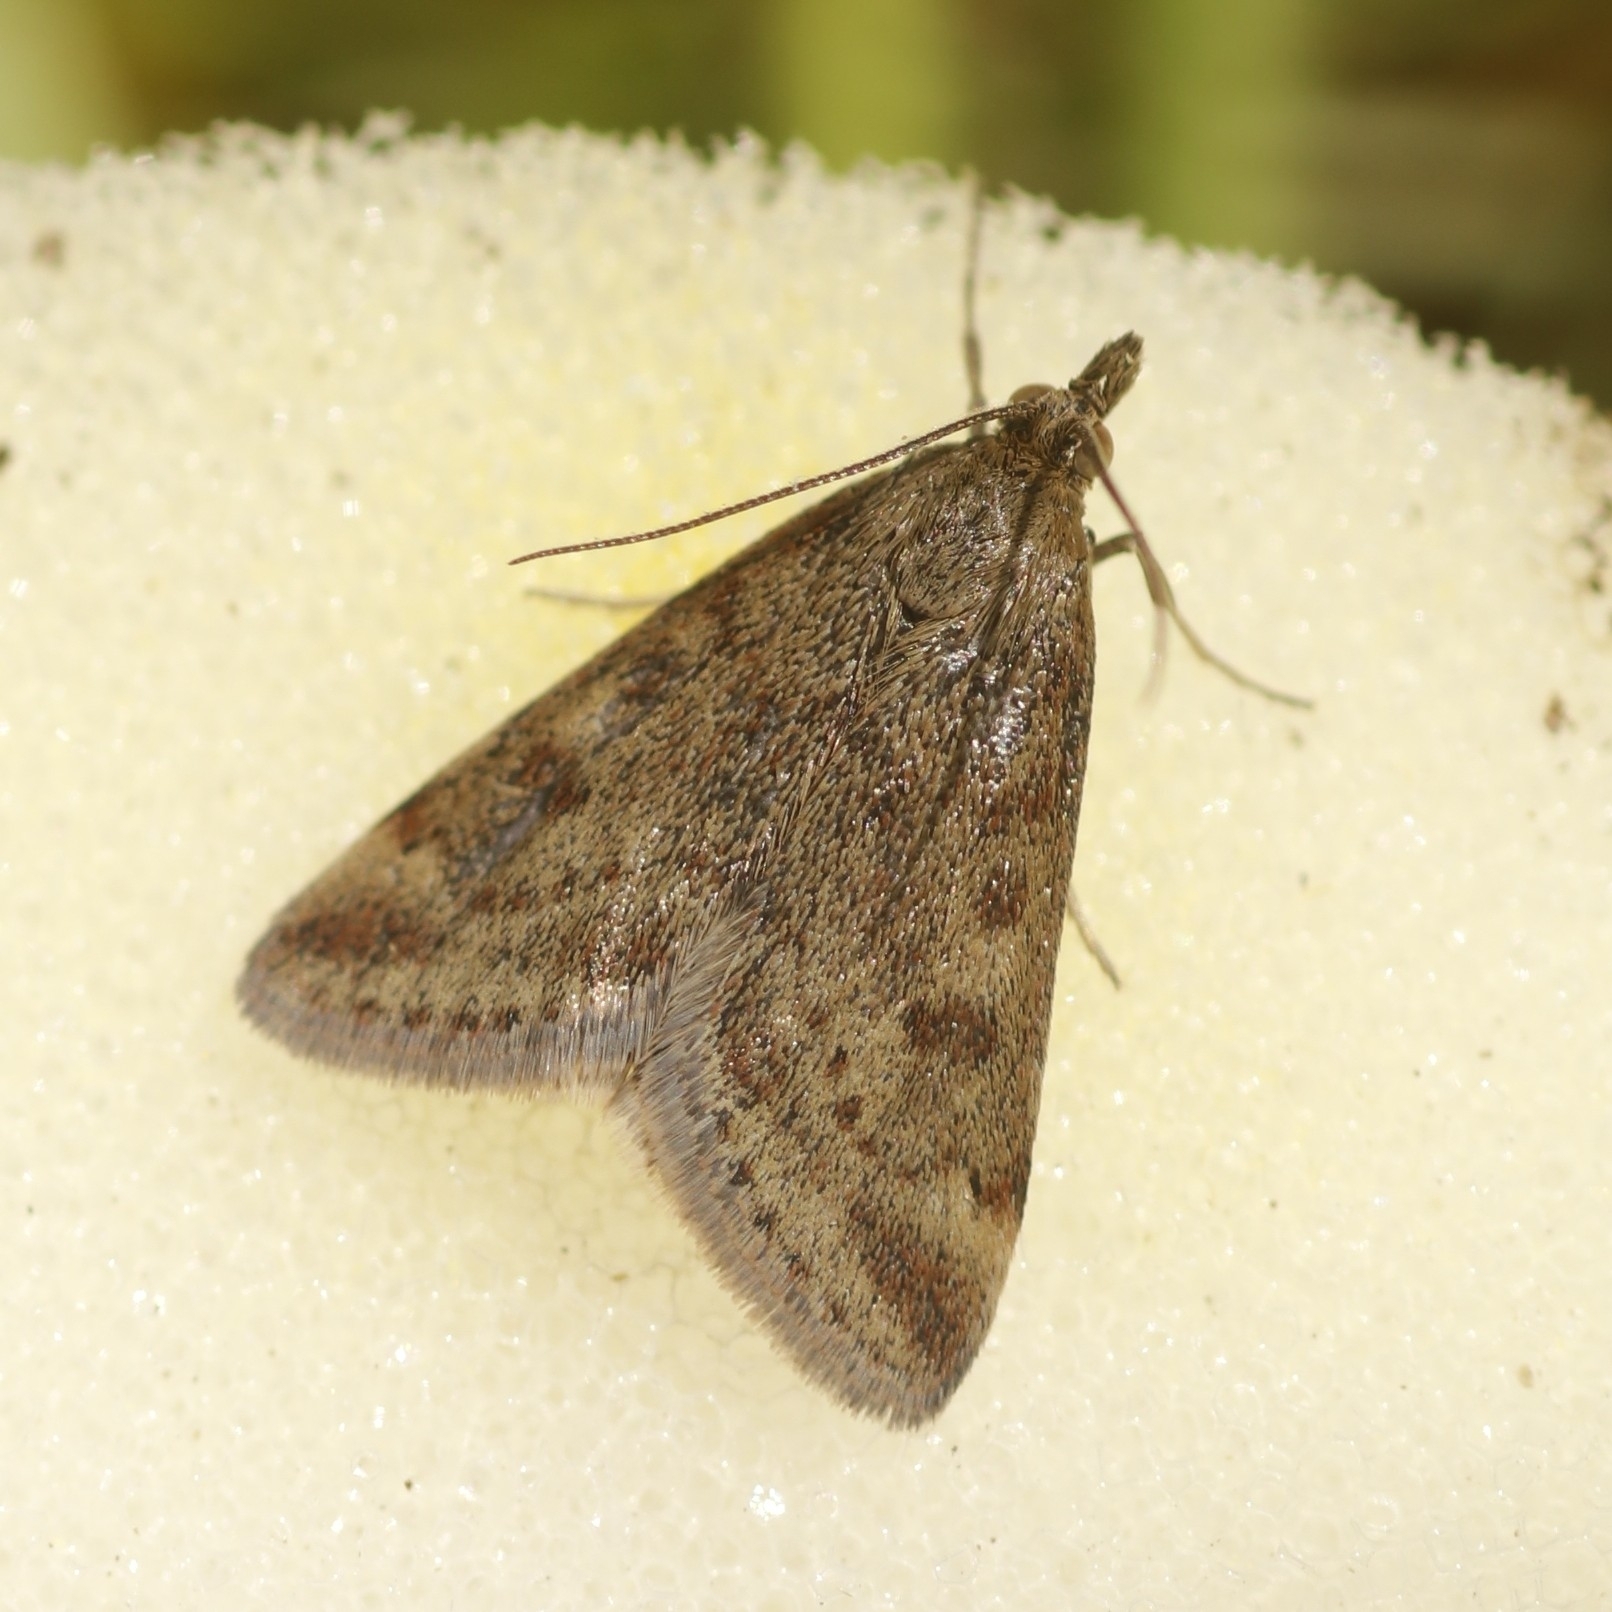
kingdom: Animalia
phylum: Arthropoda
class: Insecta
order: Lepidoptera
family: Crambidae
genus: Pyrausta
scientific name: Pyrausta despicata
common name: Straw-barred pearl
